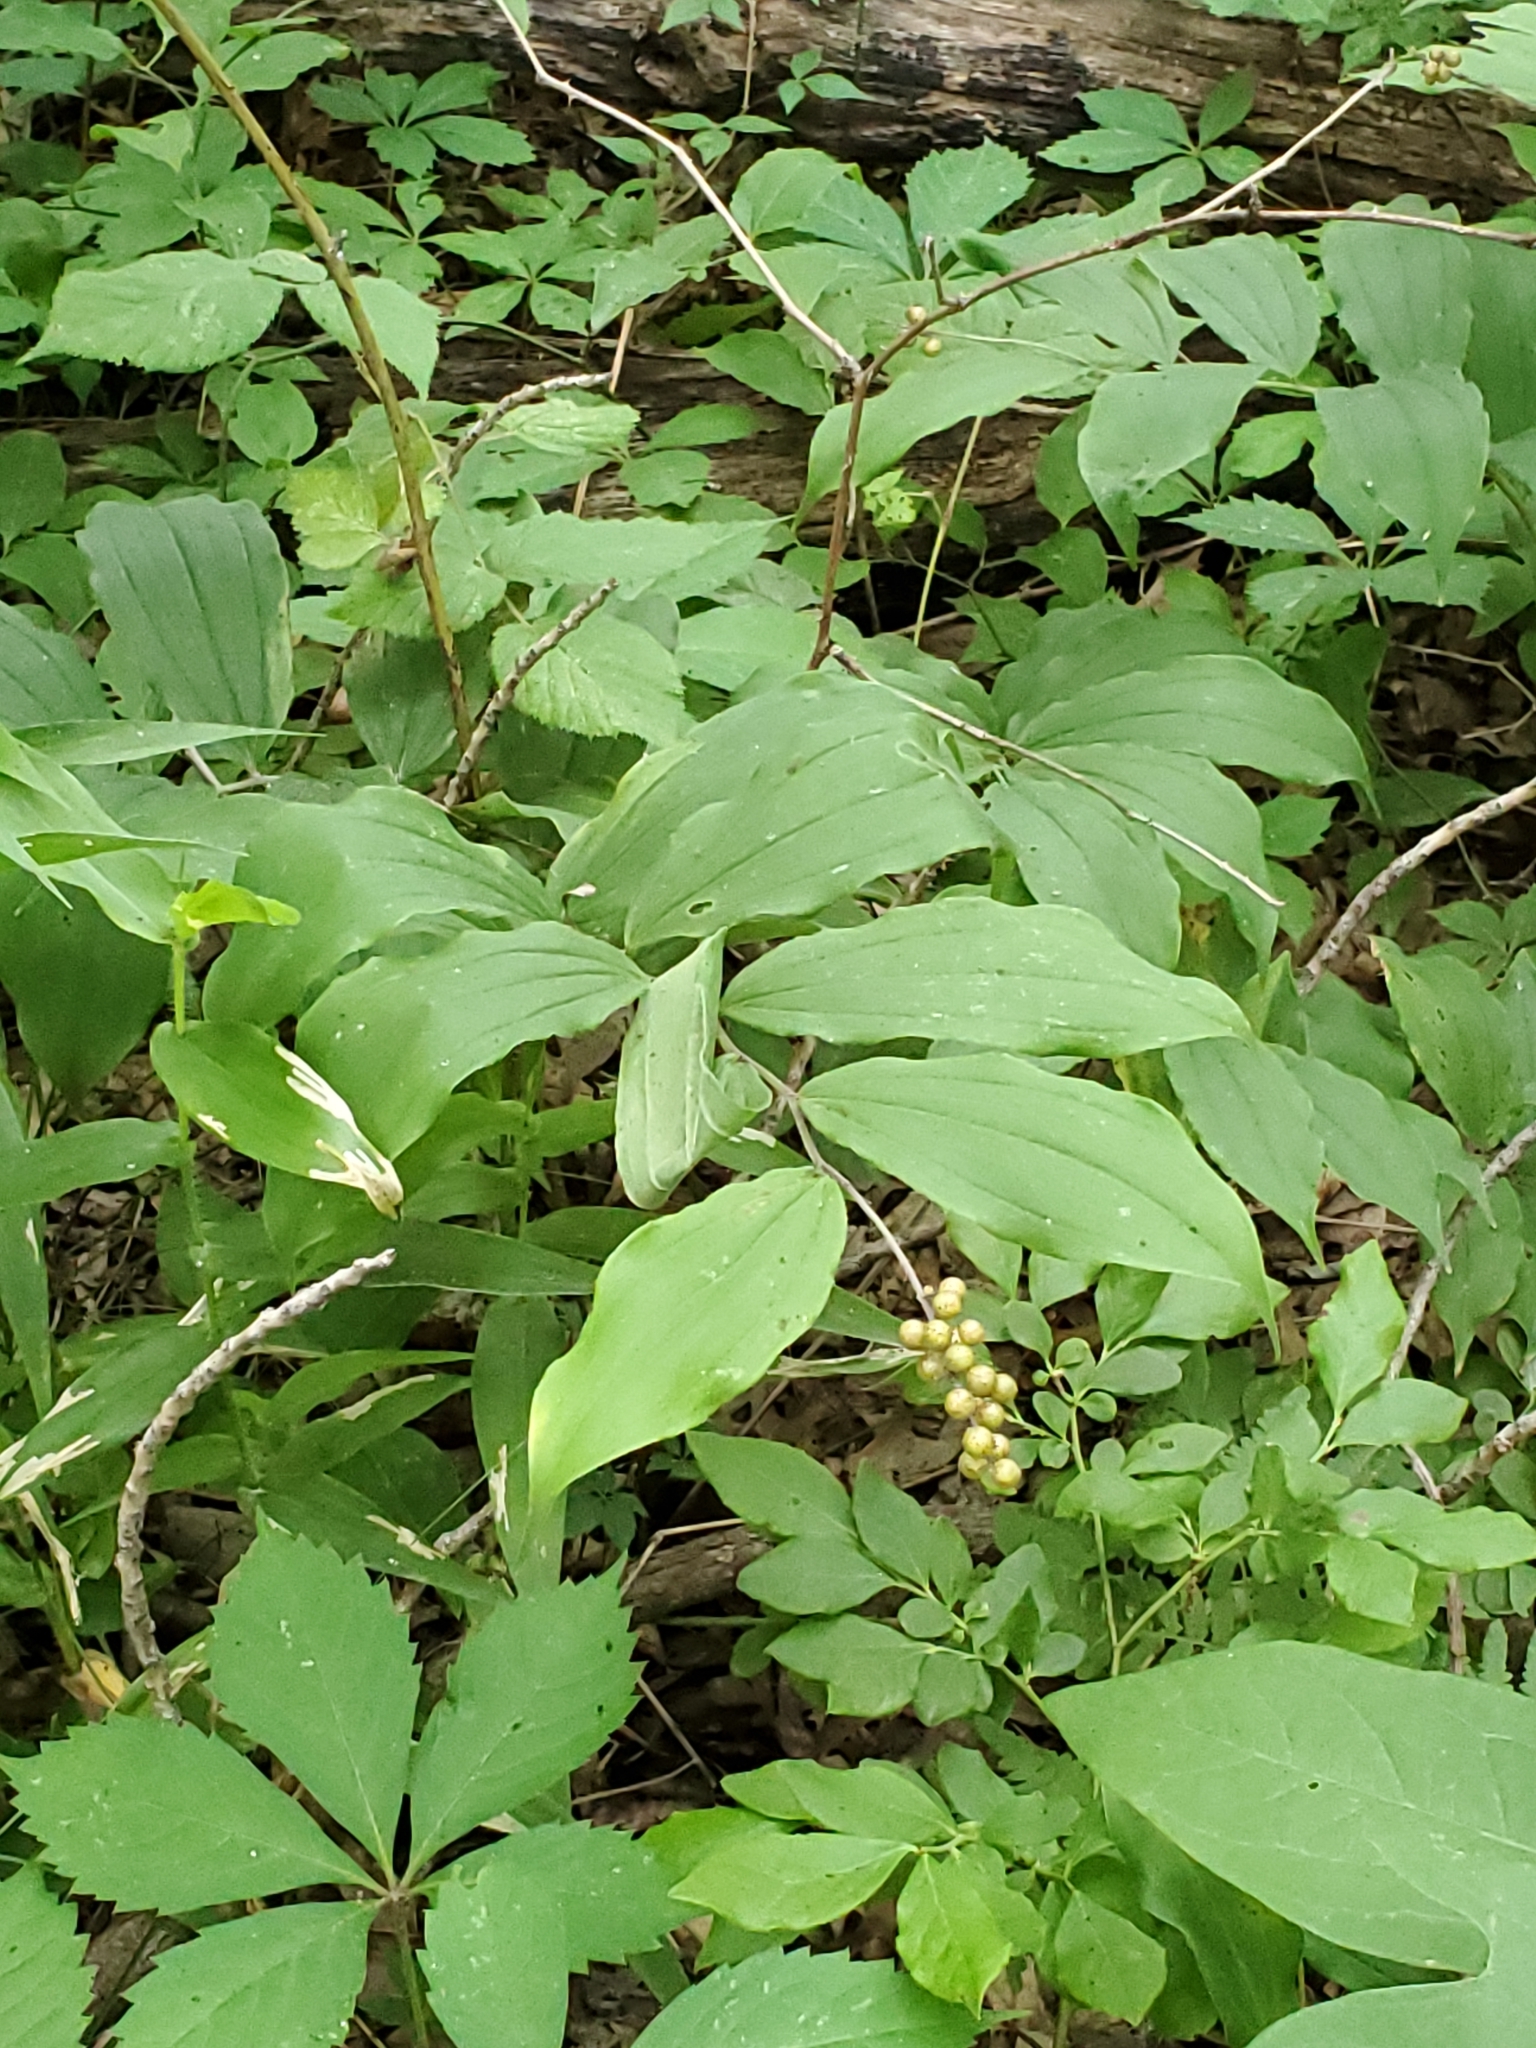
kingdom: Plantae
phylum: Tracheophyta
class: Liliopsida
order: Asparagales
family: Asparagaceae
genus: Maianthemum
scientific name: Maianthemum racemosum
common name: False spikenard
